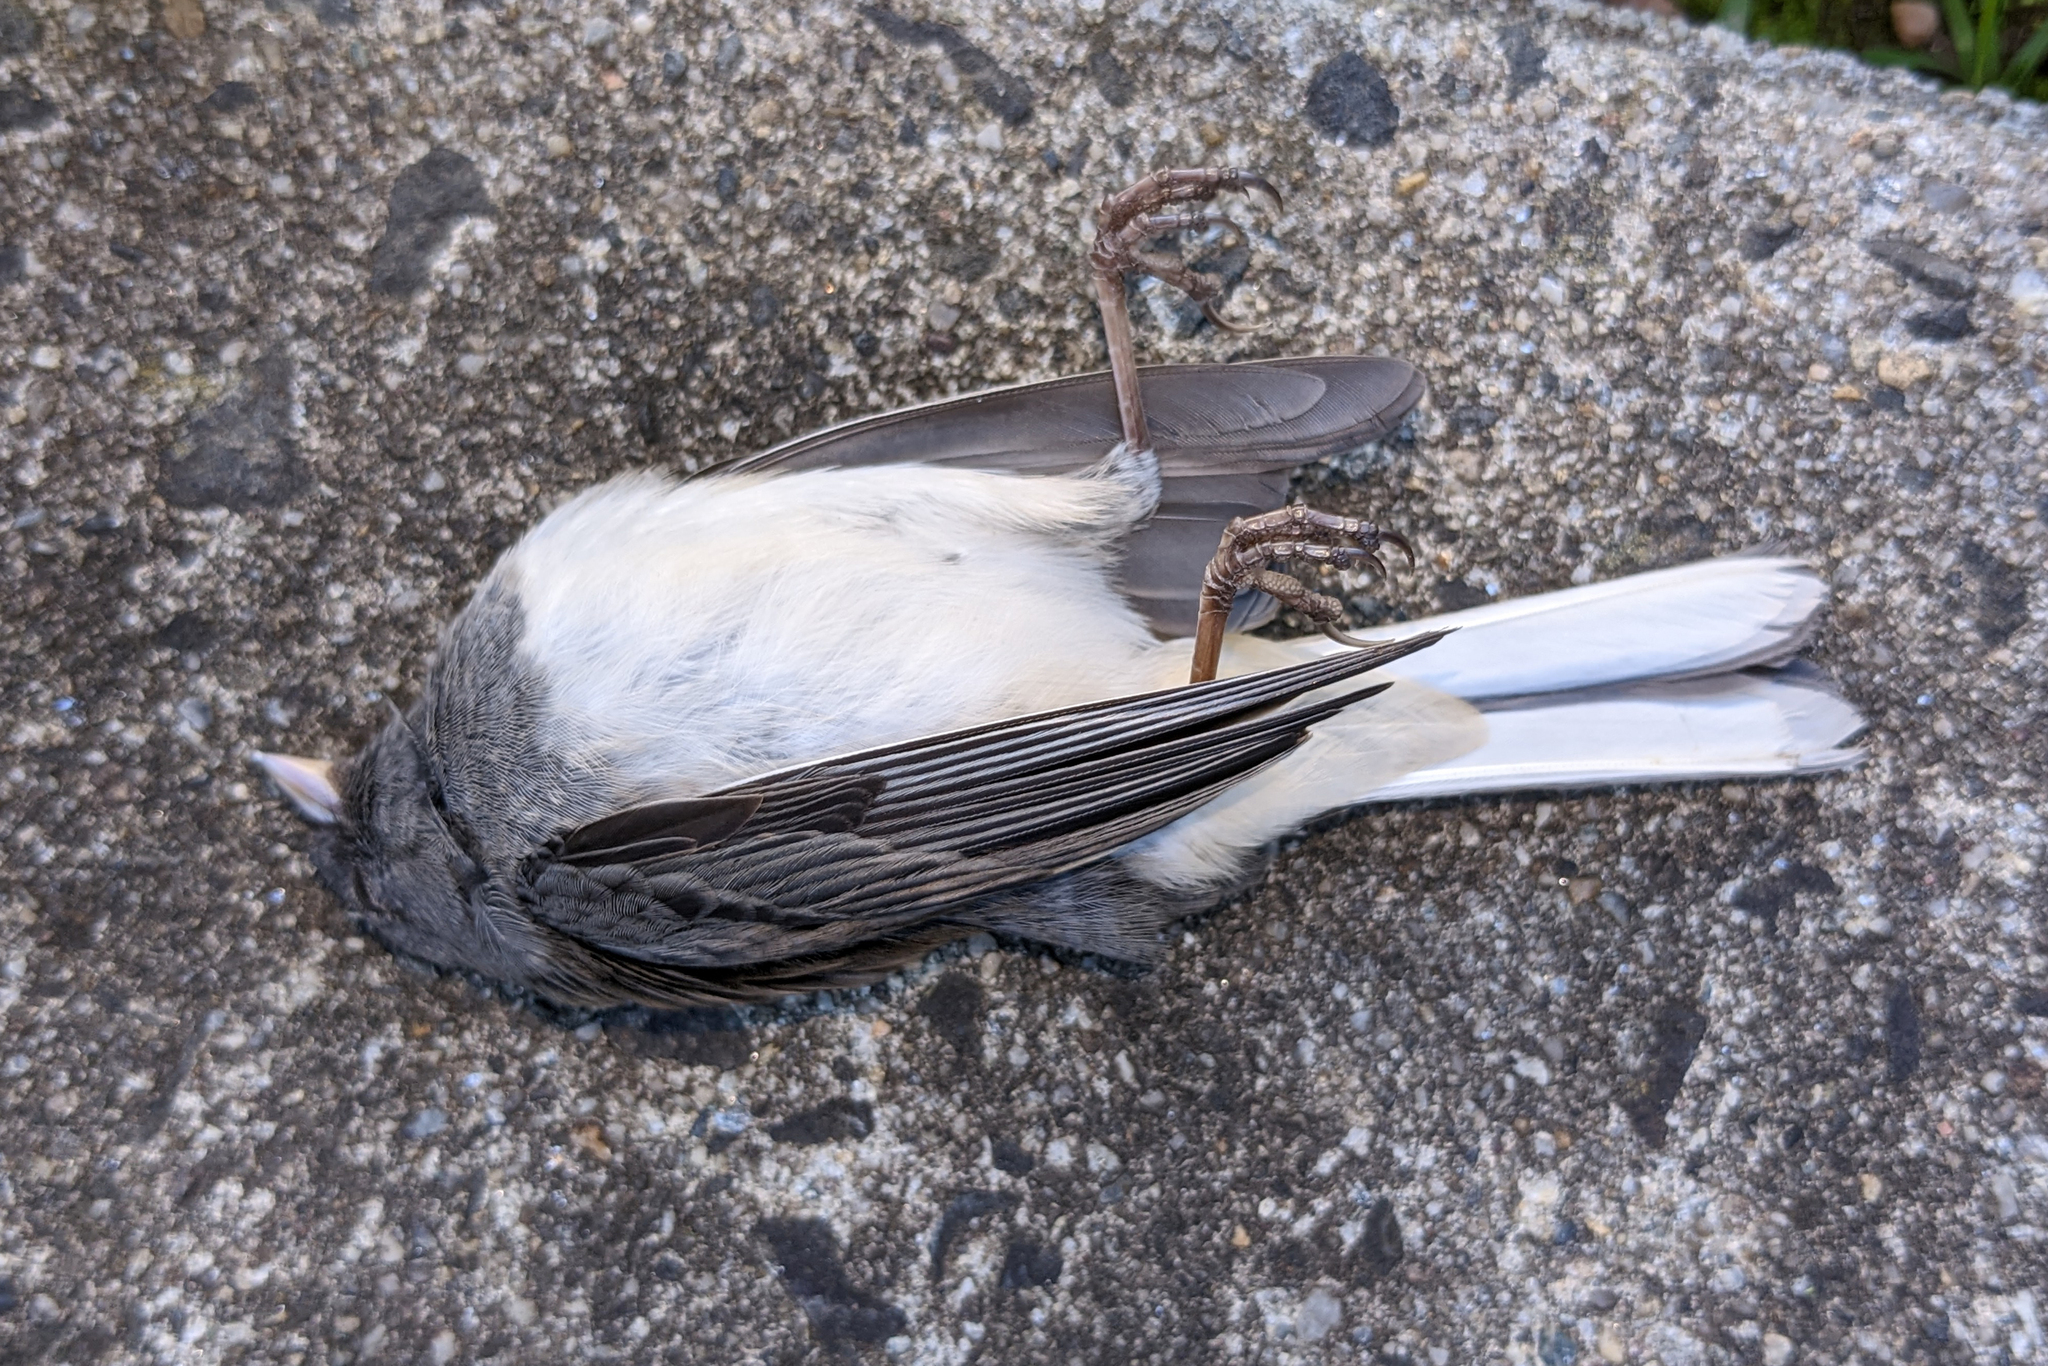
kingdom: Animalia
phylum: Chordata
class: Aves
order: Passeriformes
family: Passerellidae
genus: Junco
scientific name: Junco hyemalis
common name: Dark-eyed junco
